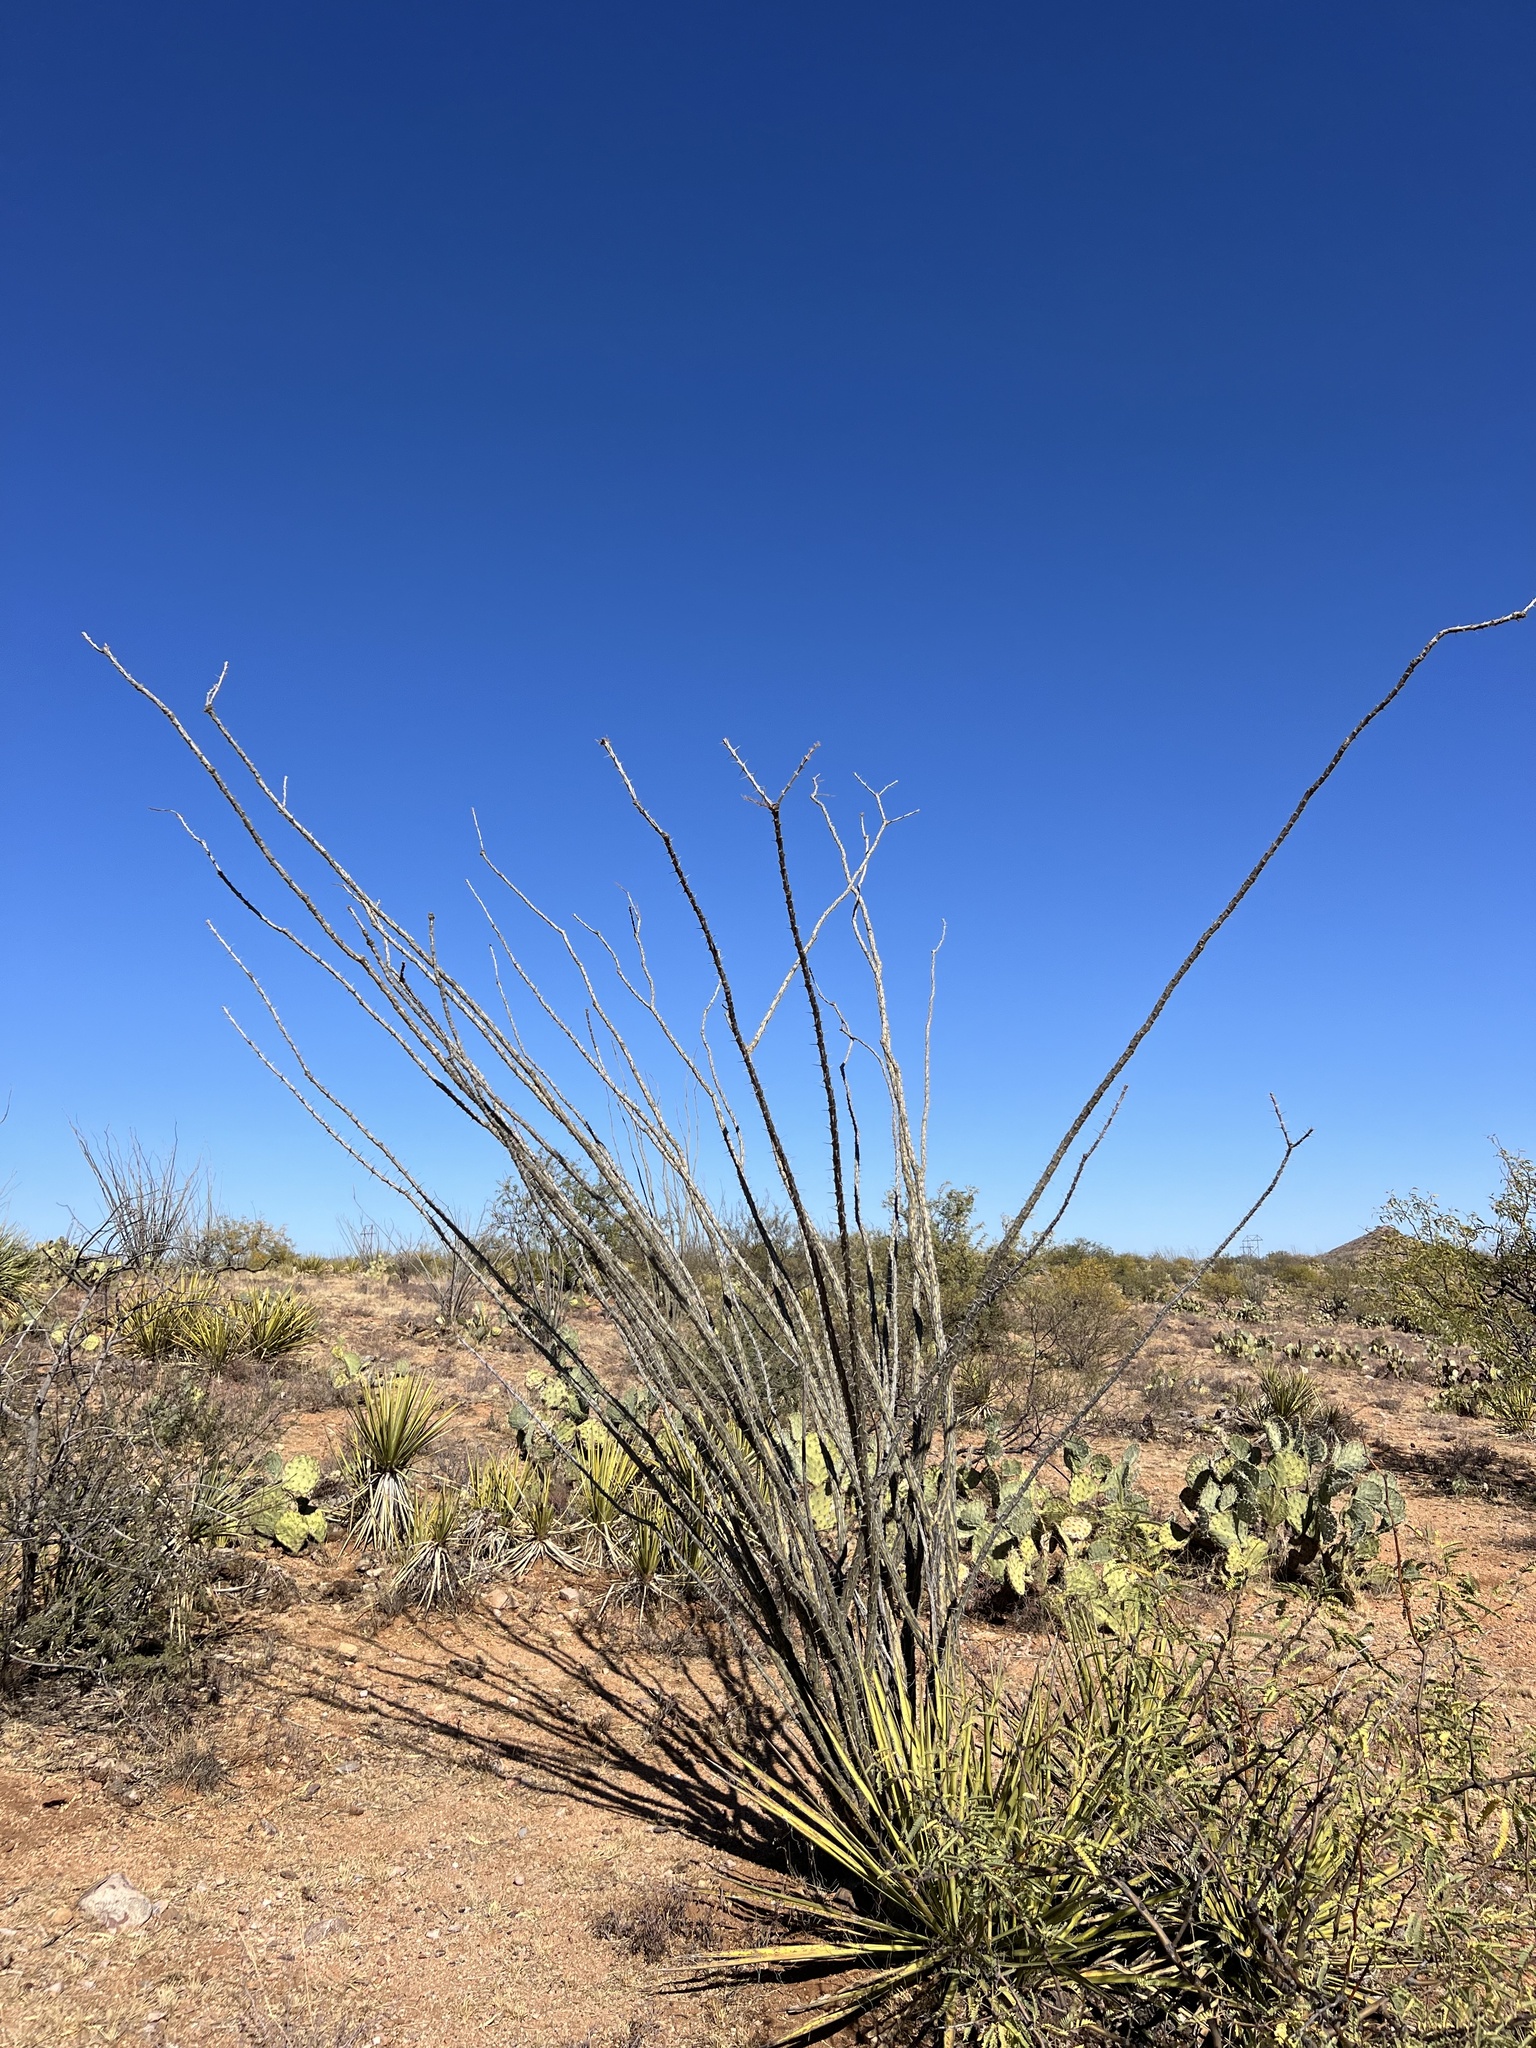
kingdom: Plantae
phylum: Tracheophyta
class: Magnoliopsida
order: Ericales
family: Fouquieriaceae
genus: Fouquieria
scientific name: Fouquieria splendens
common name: Vine-cactus
